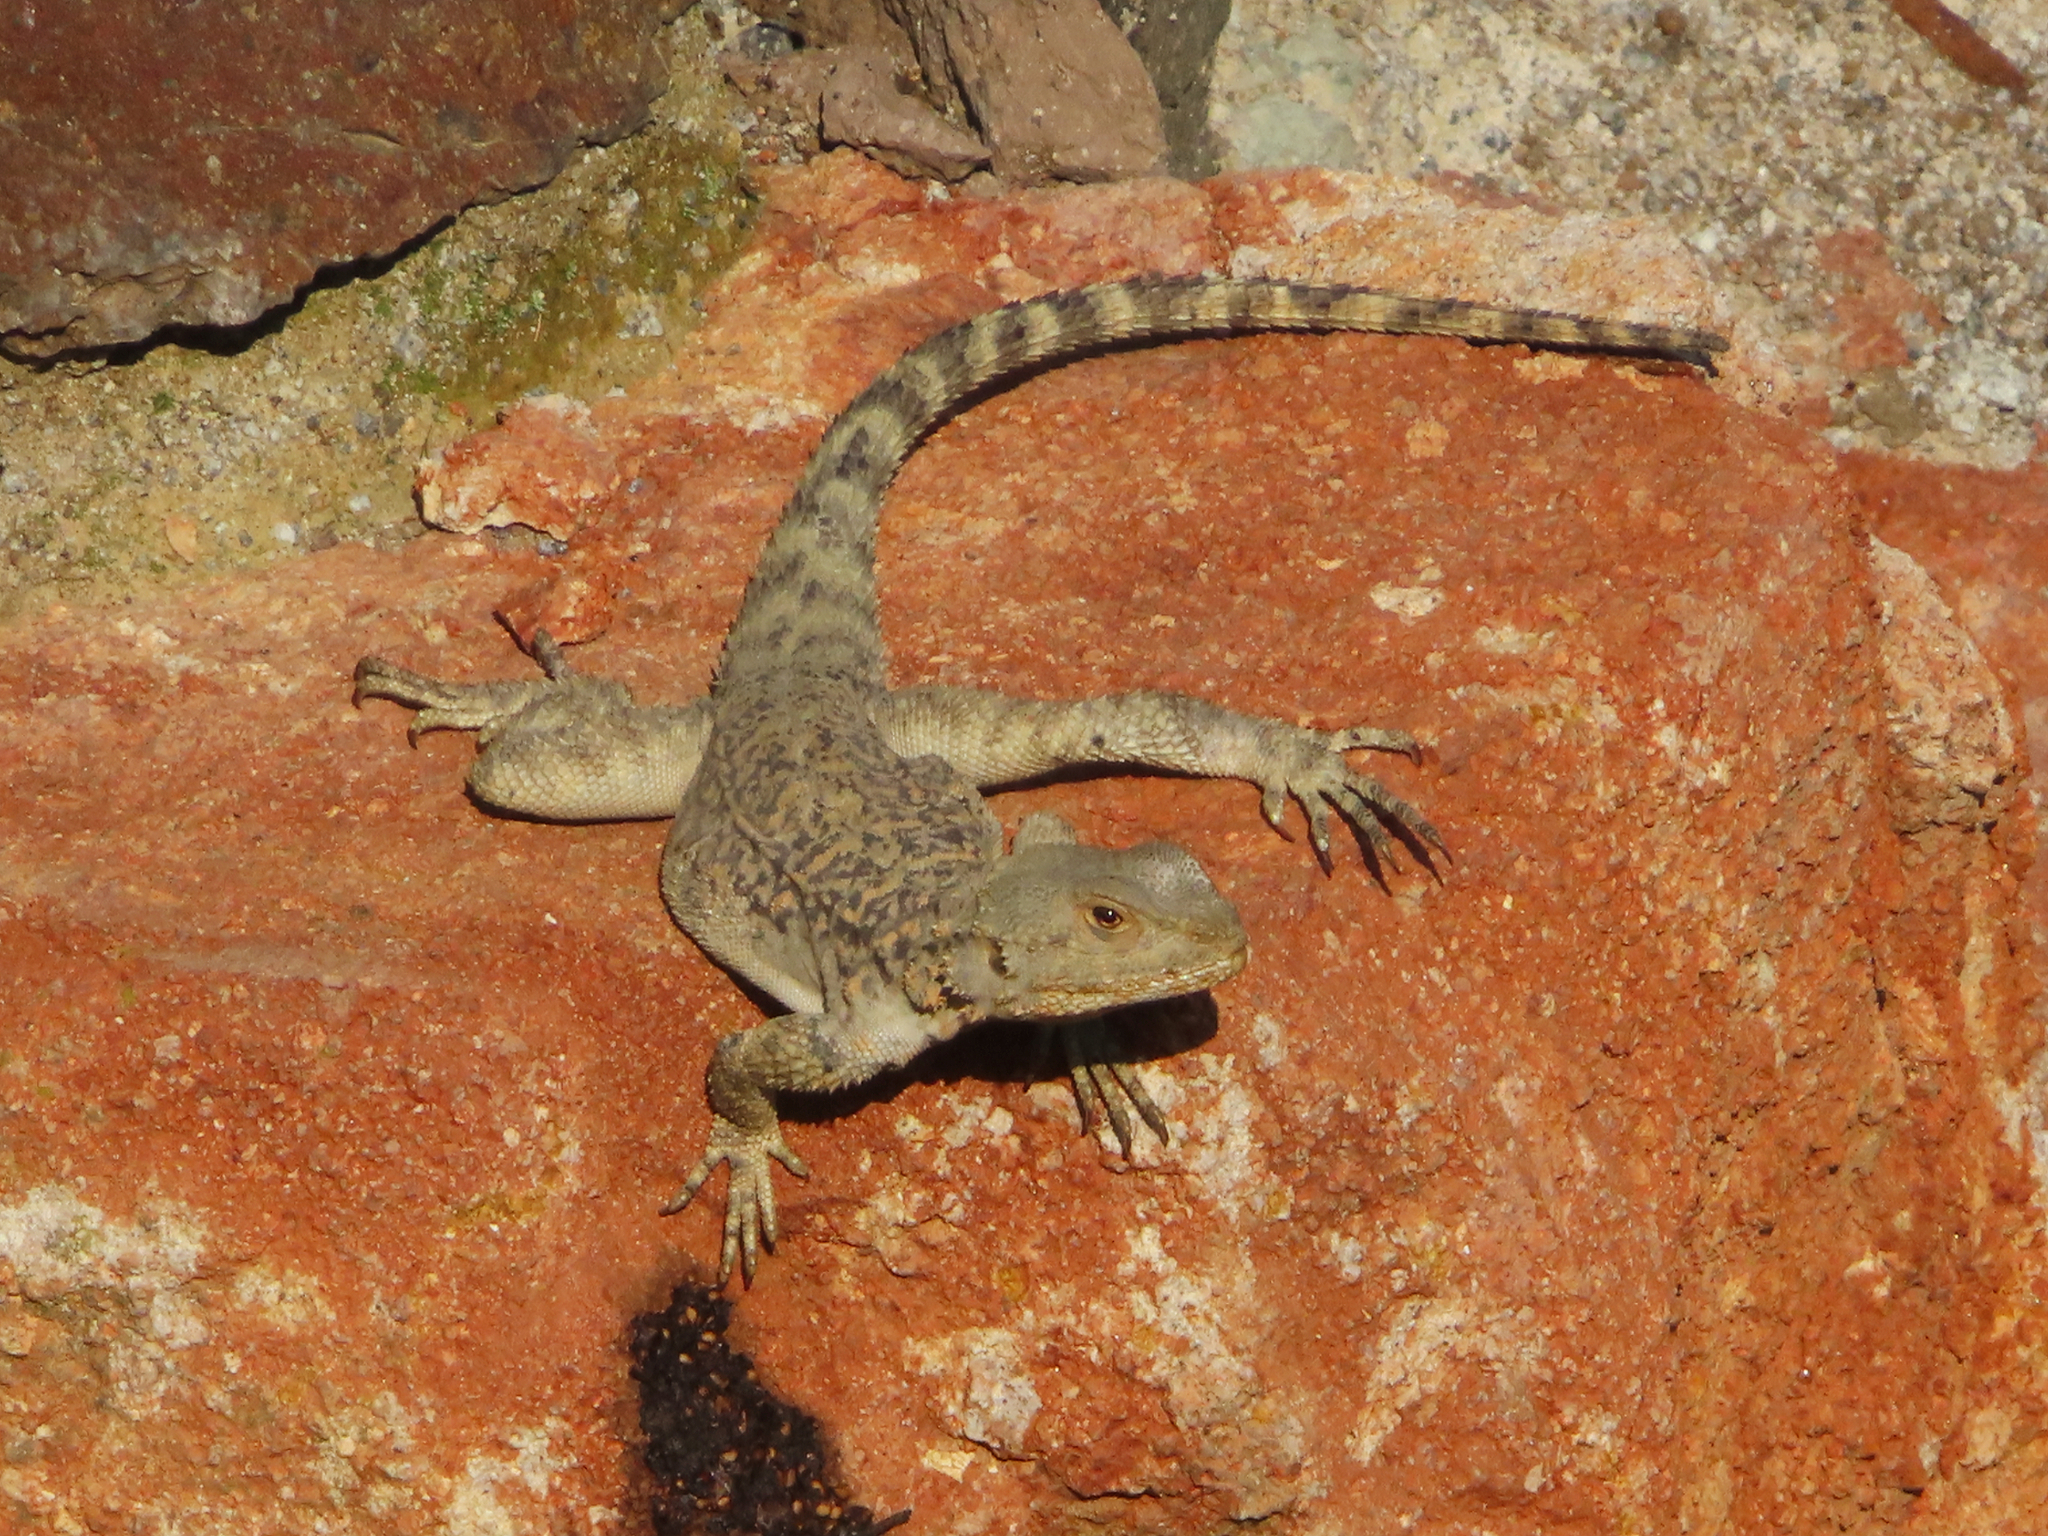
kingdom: Animalia
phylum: Chordata
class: Squamata
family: Agamidae
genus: Paralaudakia
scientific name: Paralaudakia caucasia
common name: Caucasian agama
